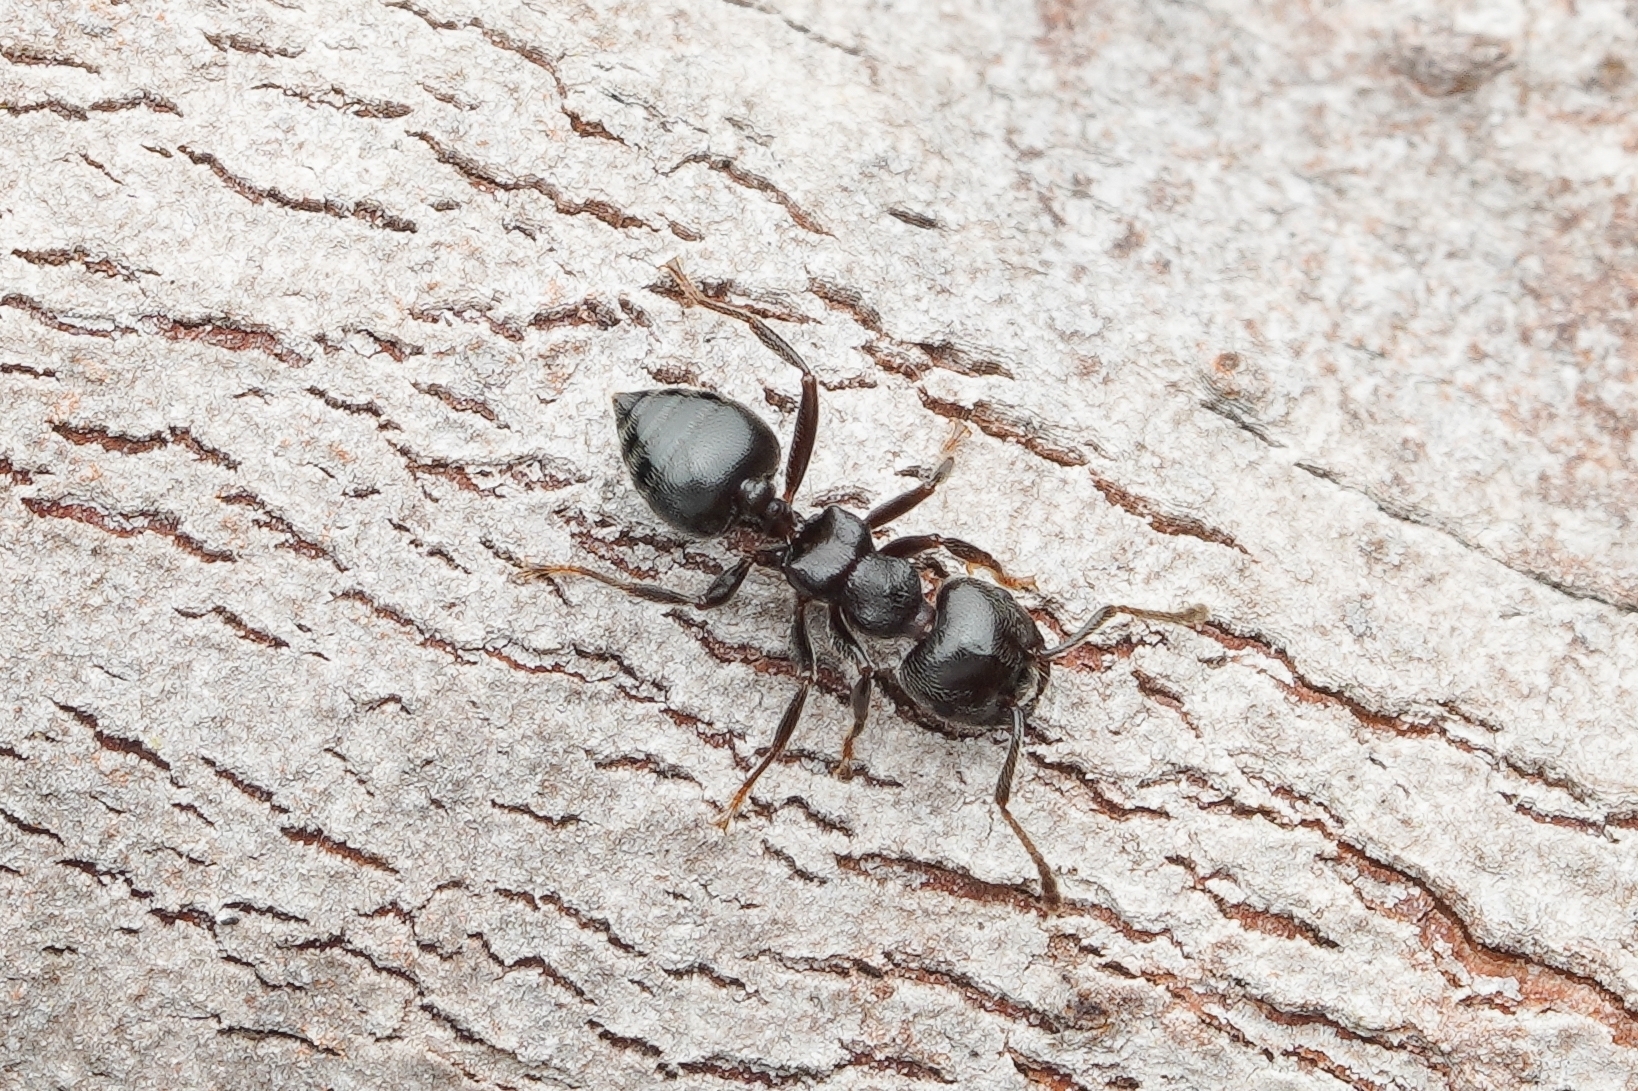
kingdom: Animalia
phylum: Arthropoda
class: Insecta
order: Hymenoptera
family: Formicidae
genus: Crematogaster
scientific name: Crematogaster difformis
